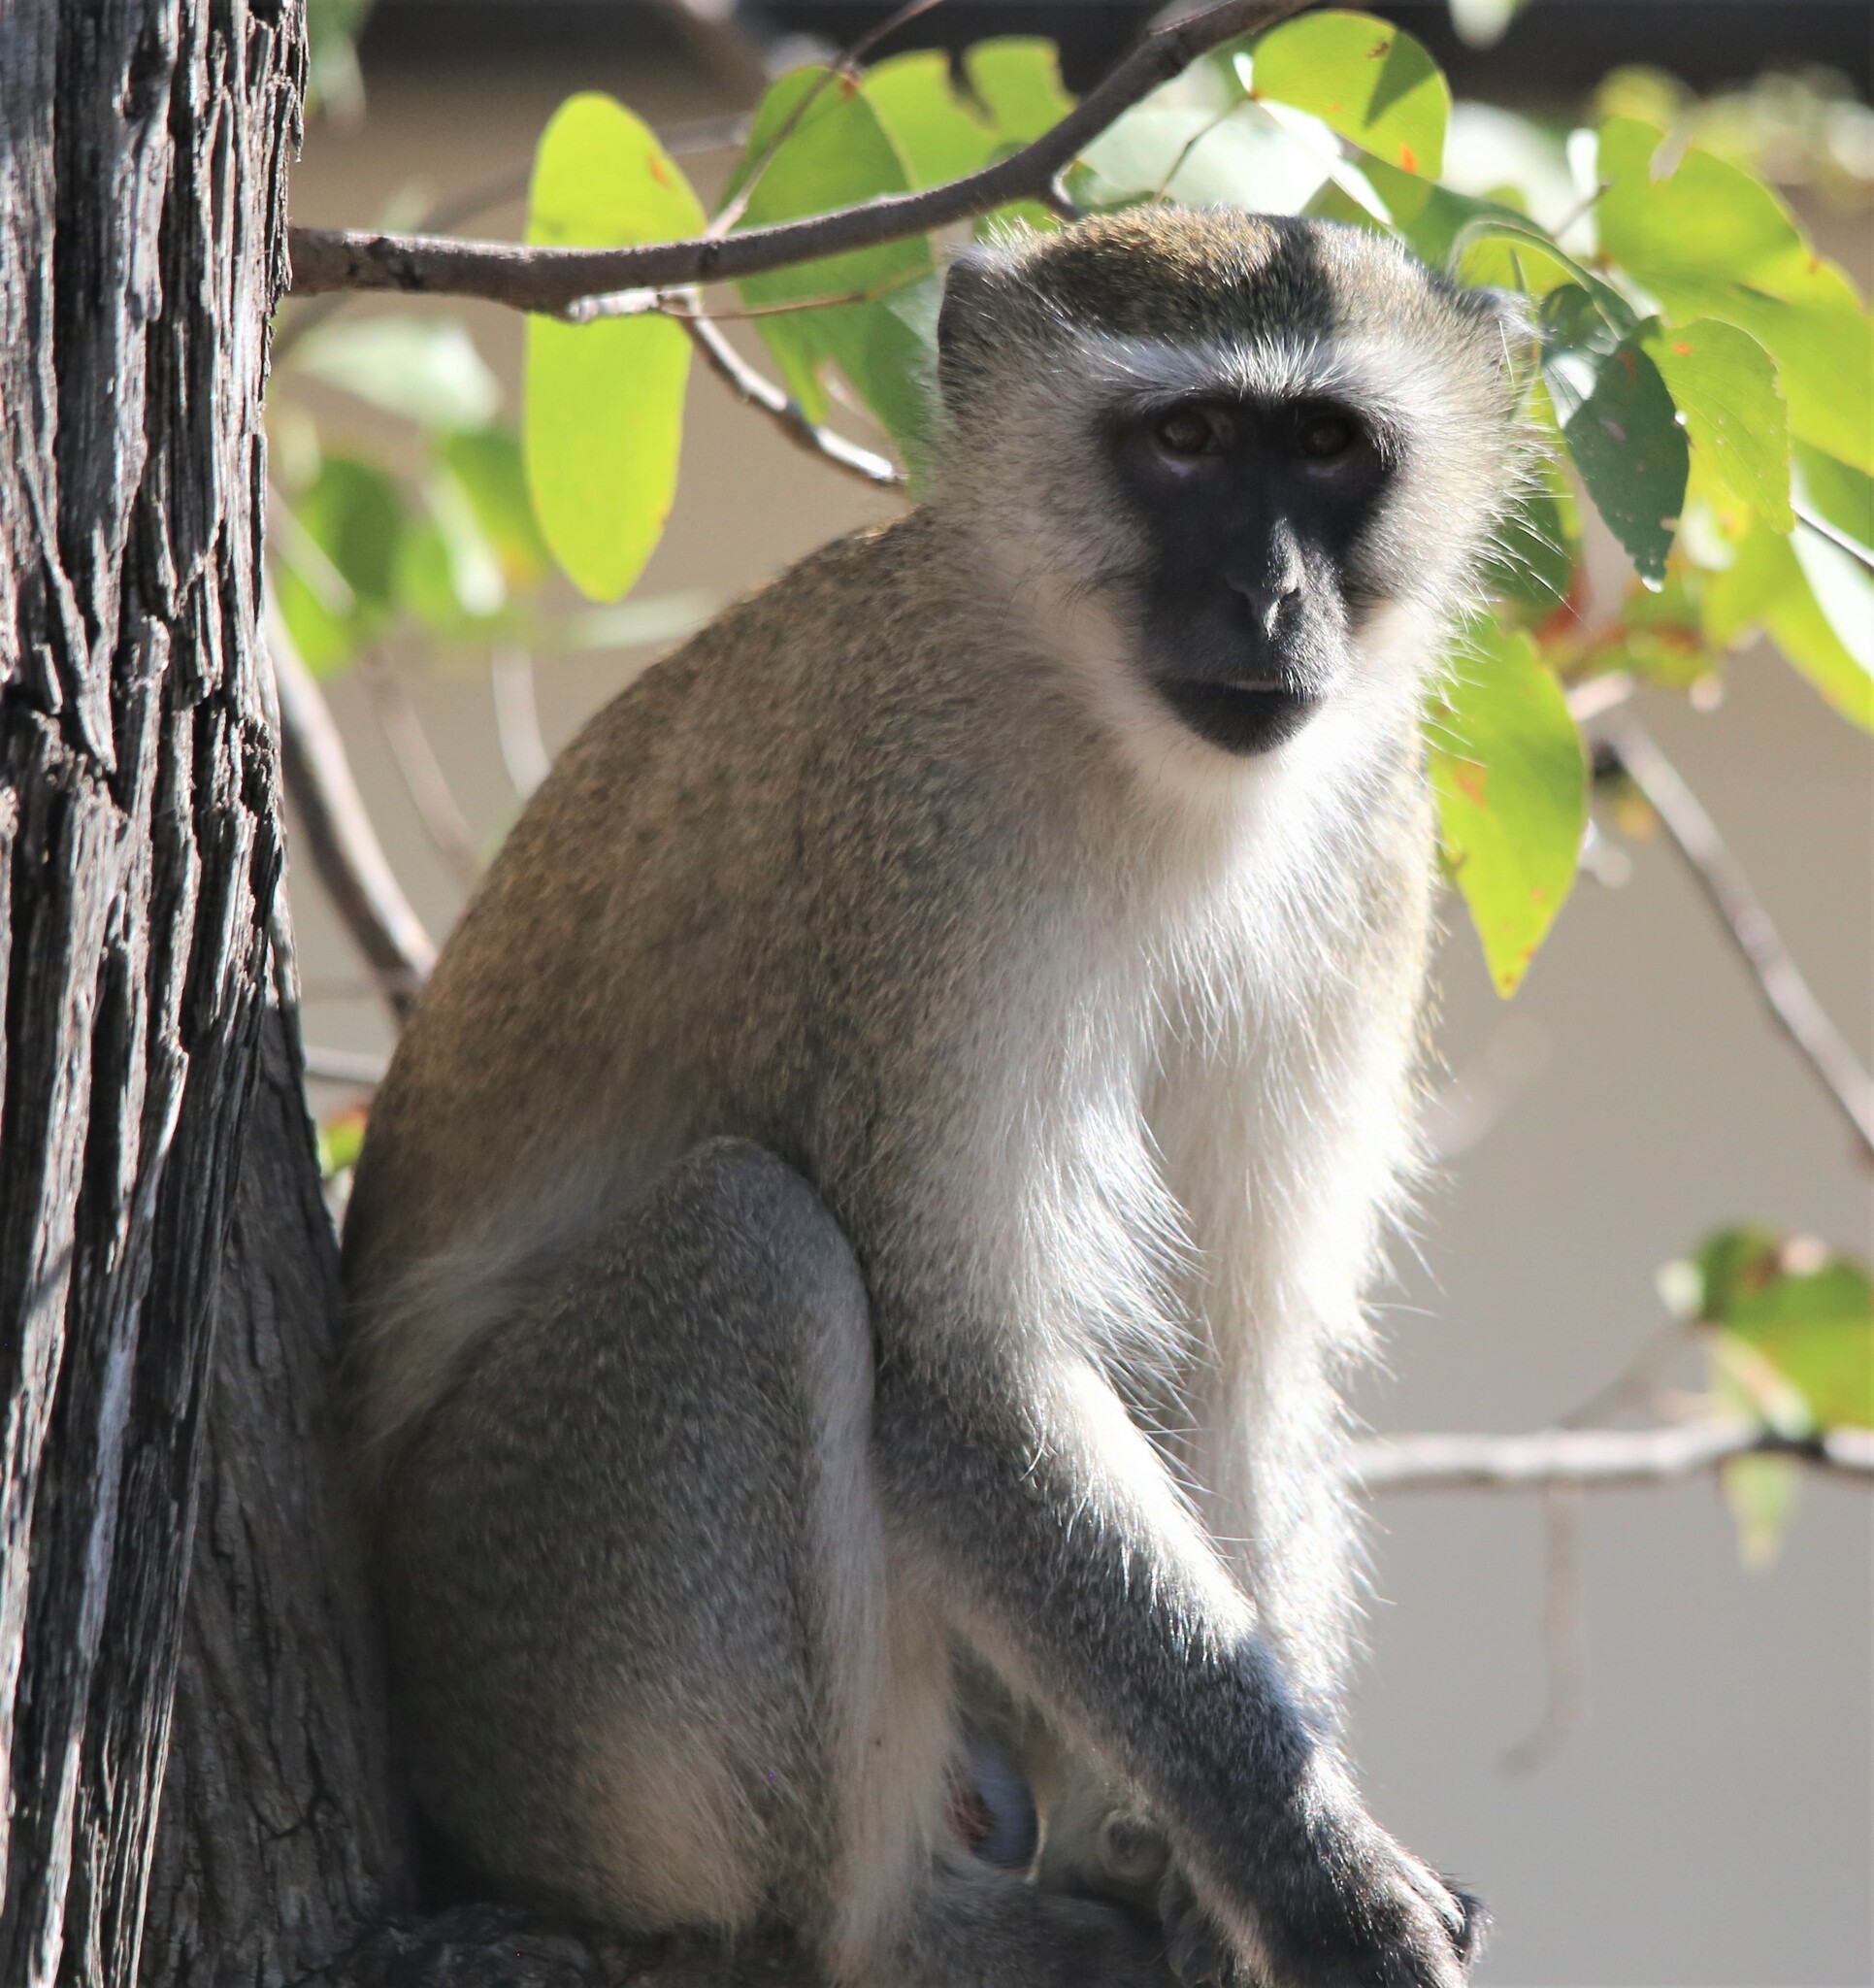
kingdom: Animalia
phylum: Chordata
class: Mammalia
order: Primates
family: Cercopithecidae
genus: Chlorocebus
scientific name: Chlorocebus pygerythrus
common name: Vervet monkey
